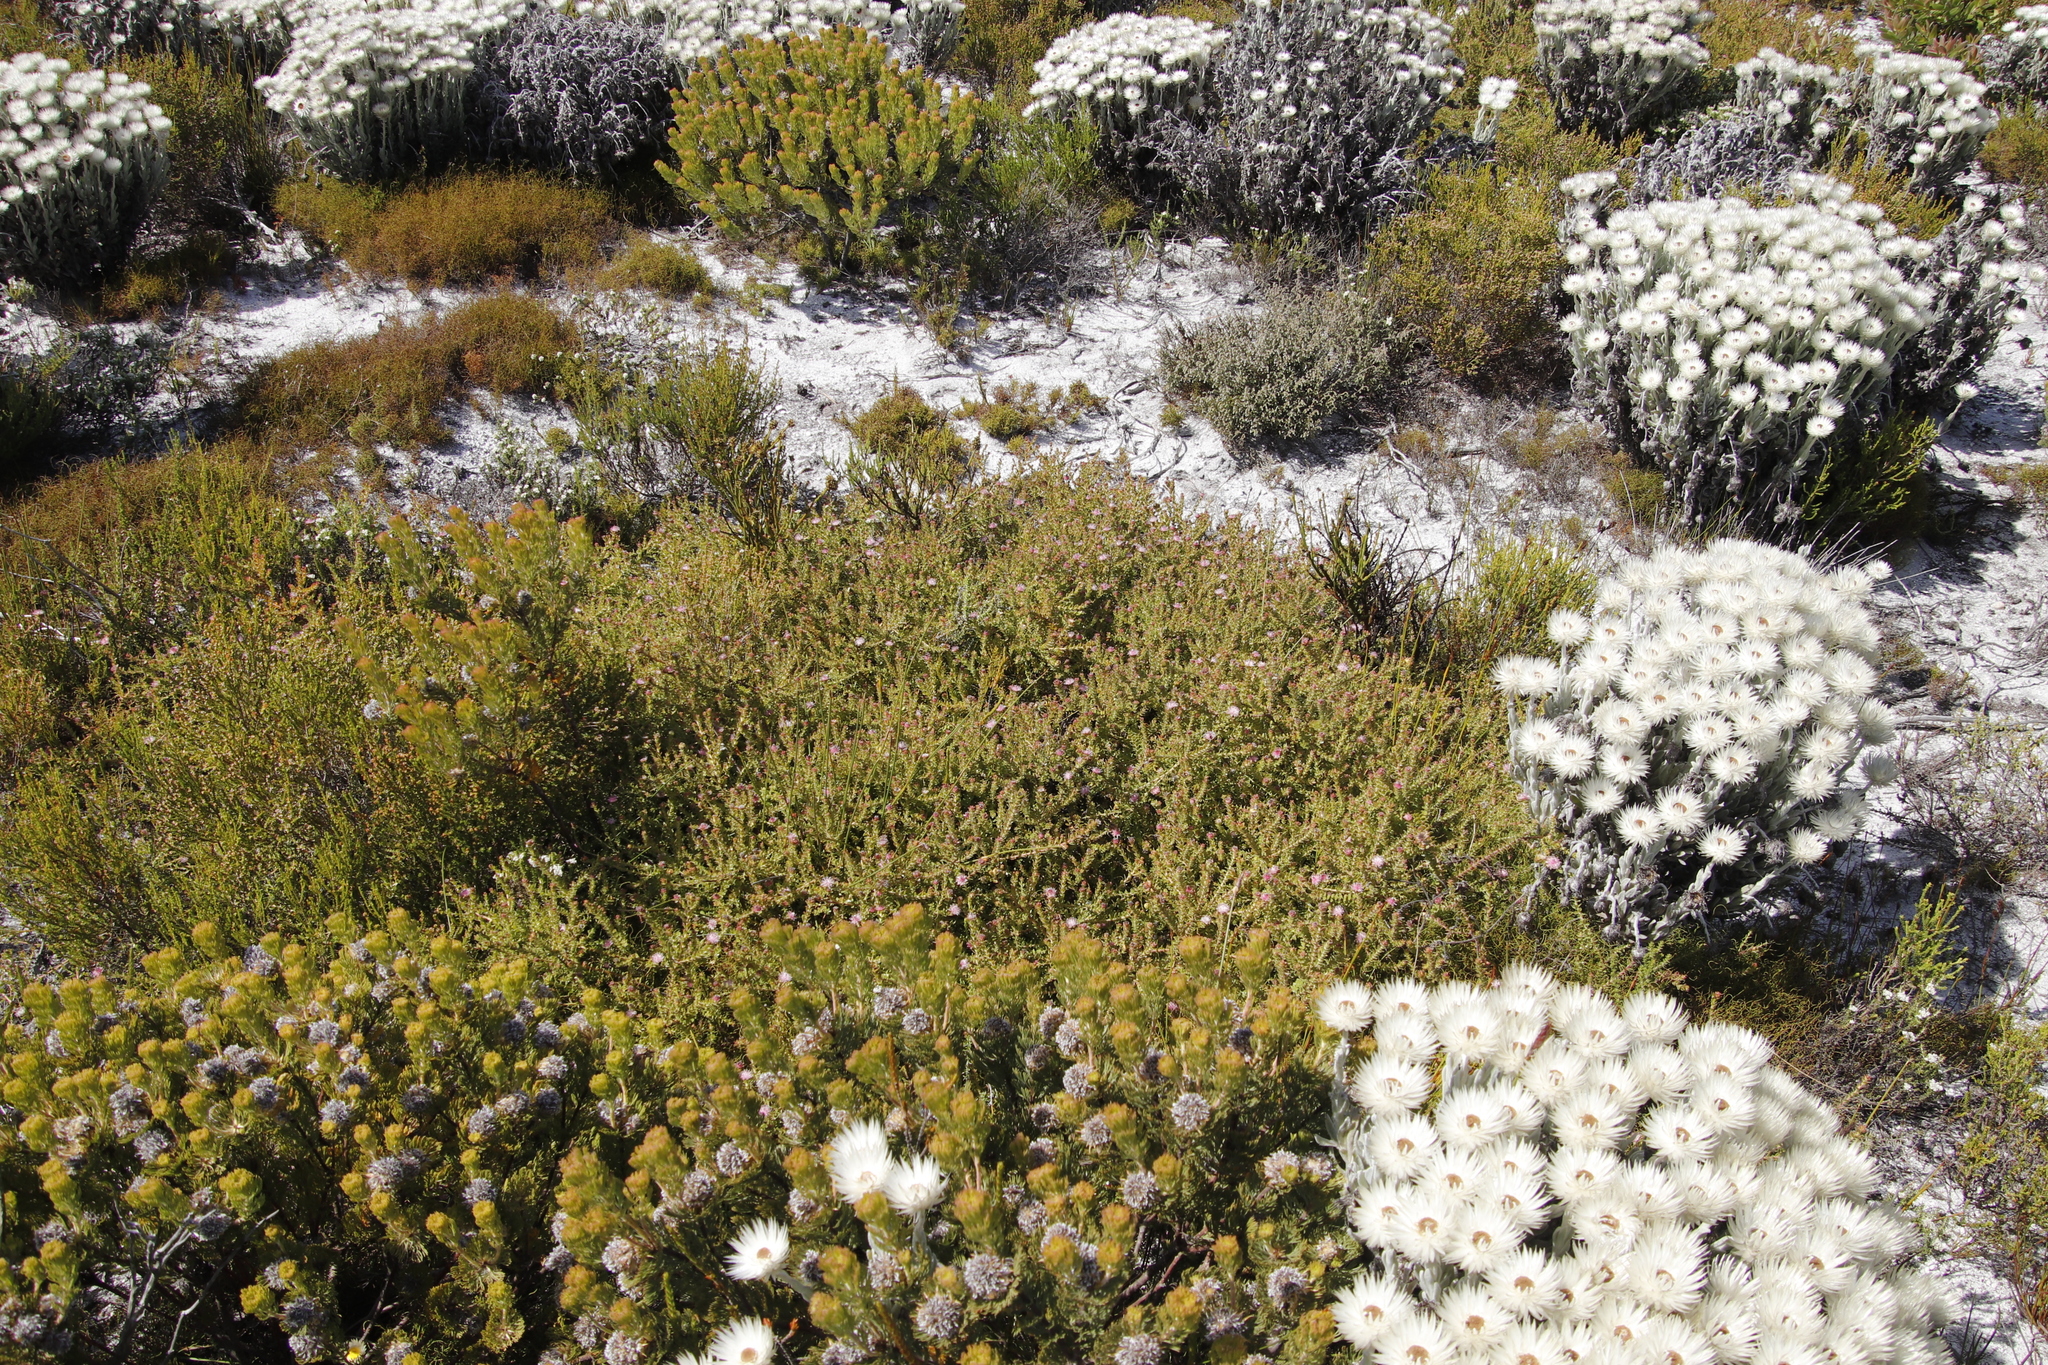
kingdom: Plantae
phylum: Tracheophyta
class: Magnoliopsida
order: Proteales
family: Proteaceae
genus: Diastella
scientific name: Diastella divaricata
